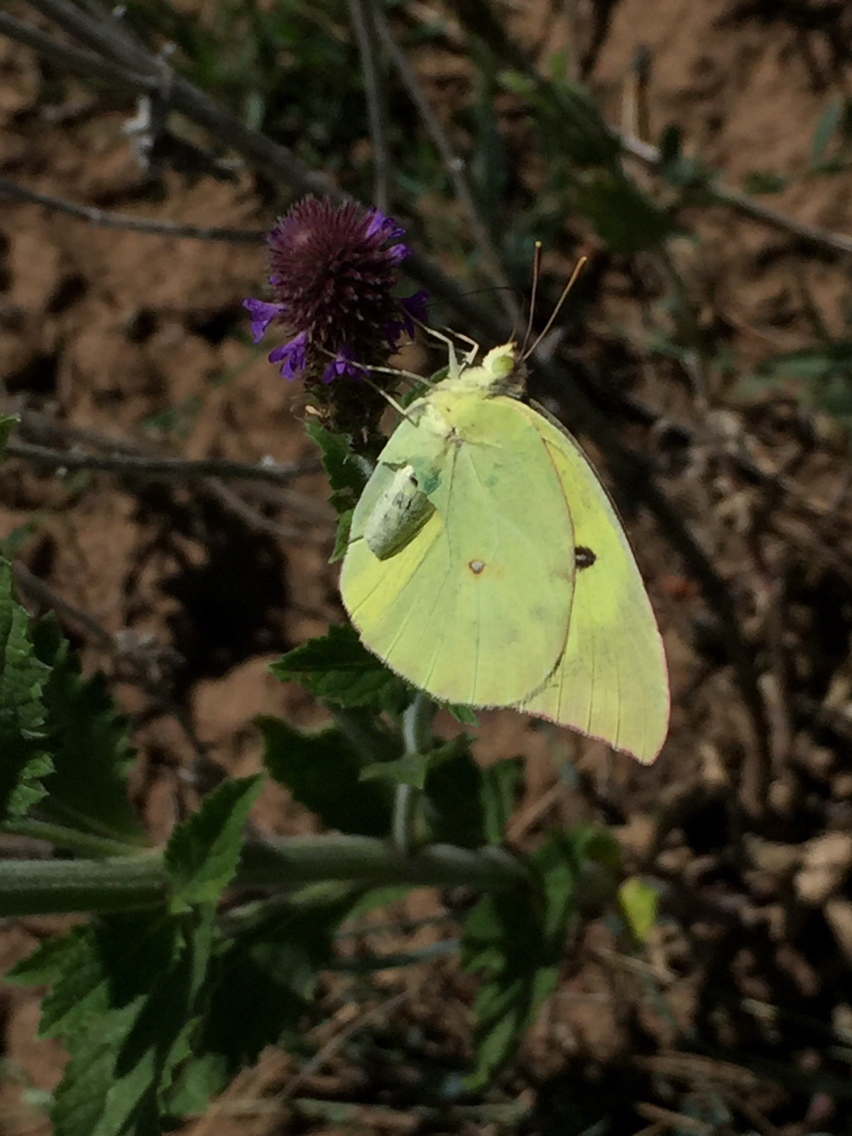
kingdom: Animalia
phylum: Arthropoda
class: Insecta
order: Lepidoptera
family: Pieridae
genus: Zerene
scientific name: Zerene cesonia
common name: Southern dogface
